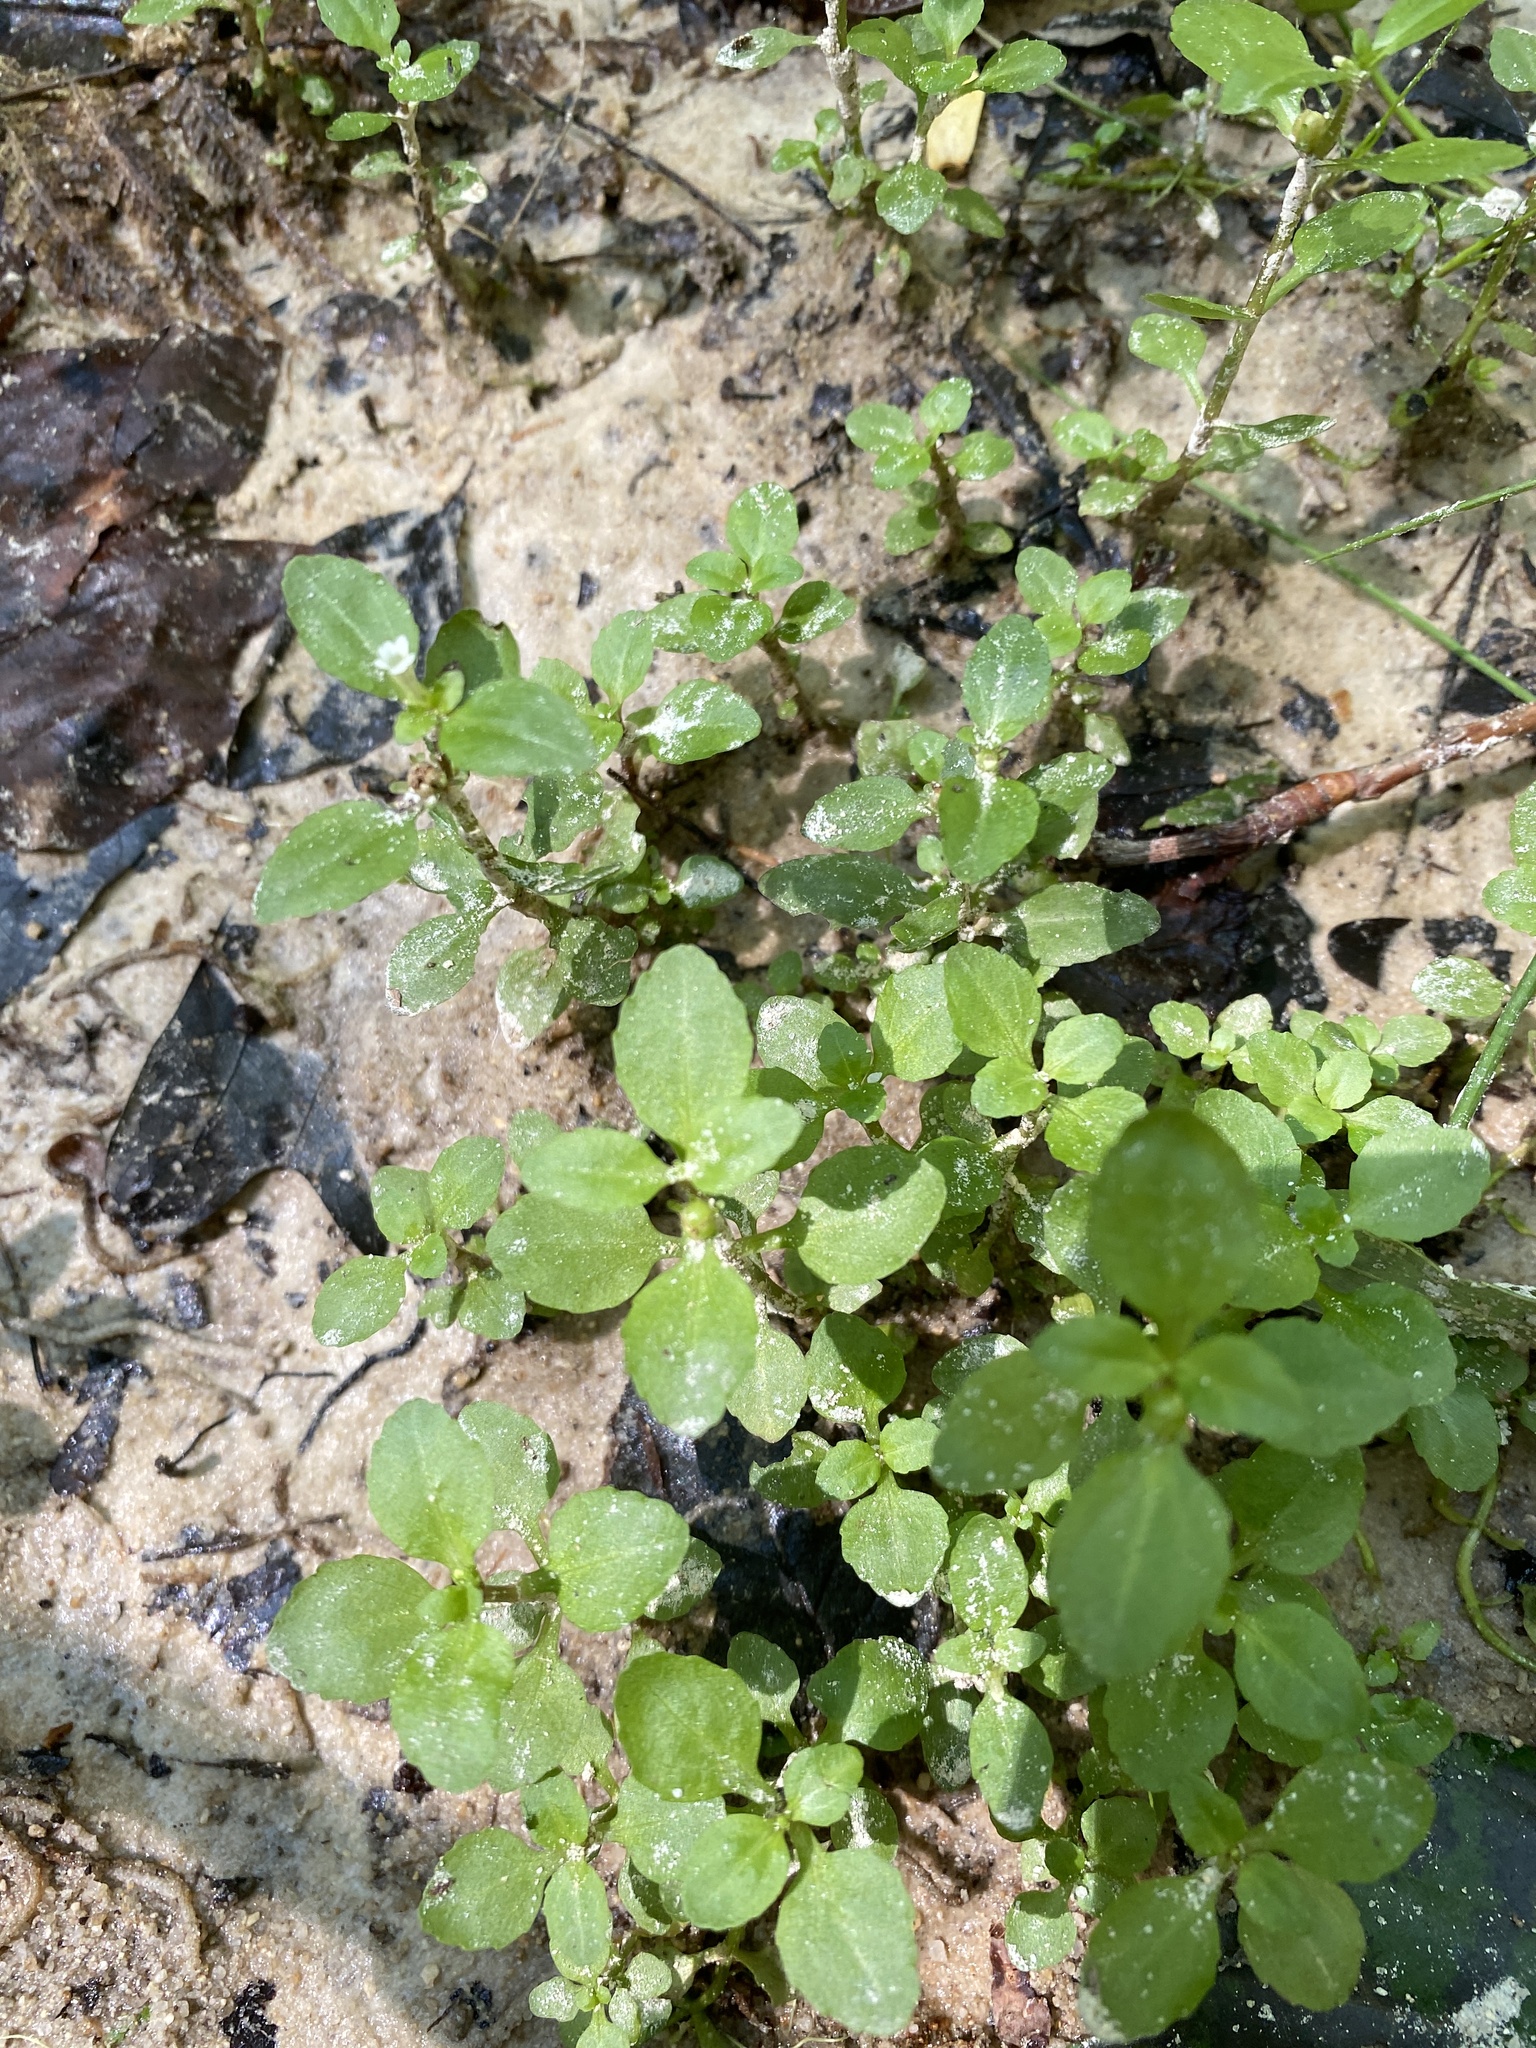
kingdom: Plantae
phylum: Tracheophyta
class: Magnoliopsida
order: Lamiales
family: Plantaginaceae
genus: Gratiola
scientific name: Gratiola virginiana
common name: Roundfruit hedgehyssop
